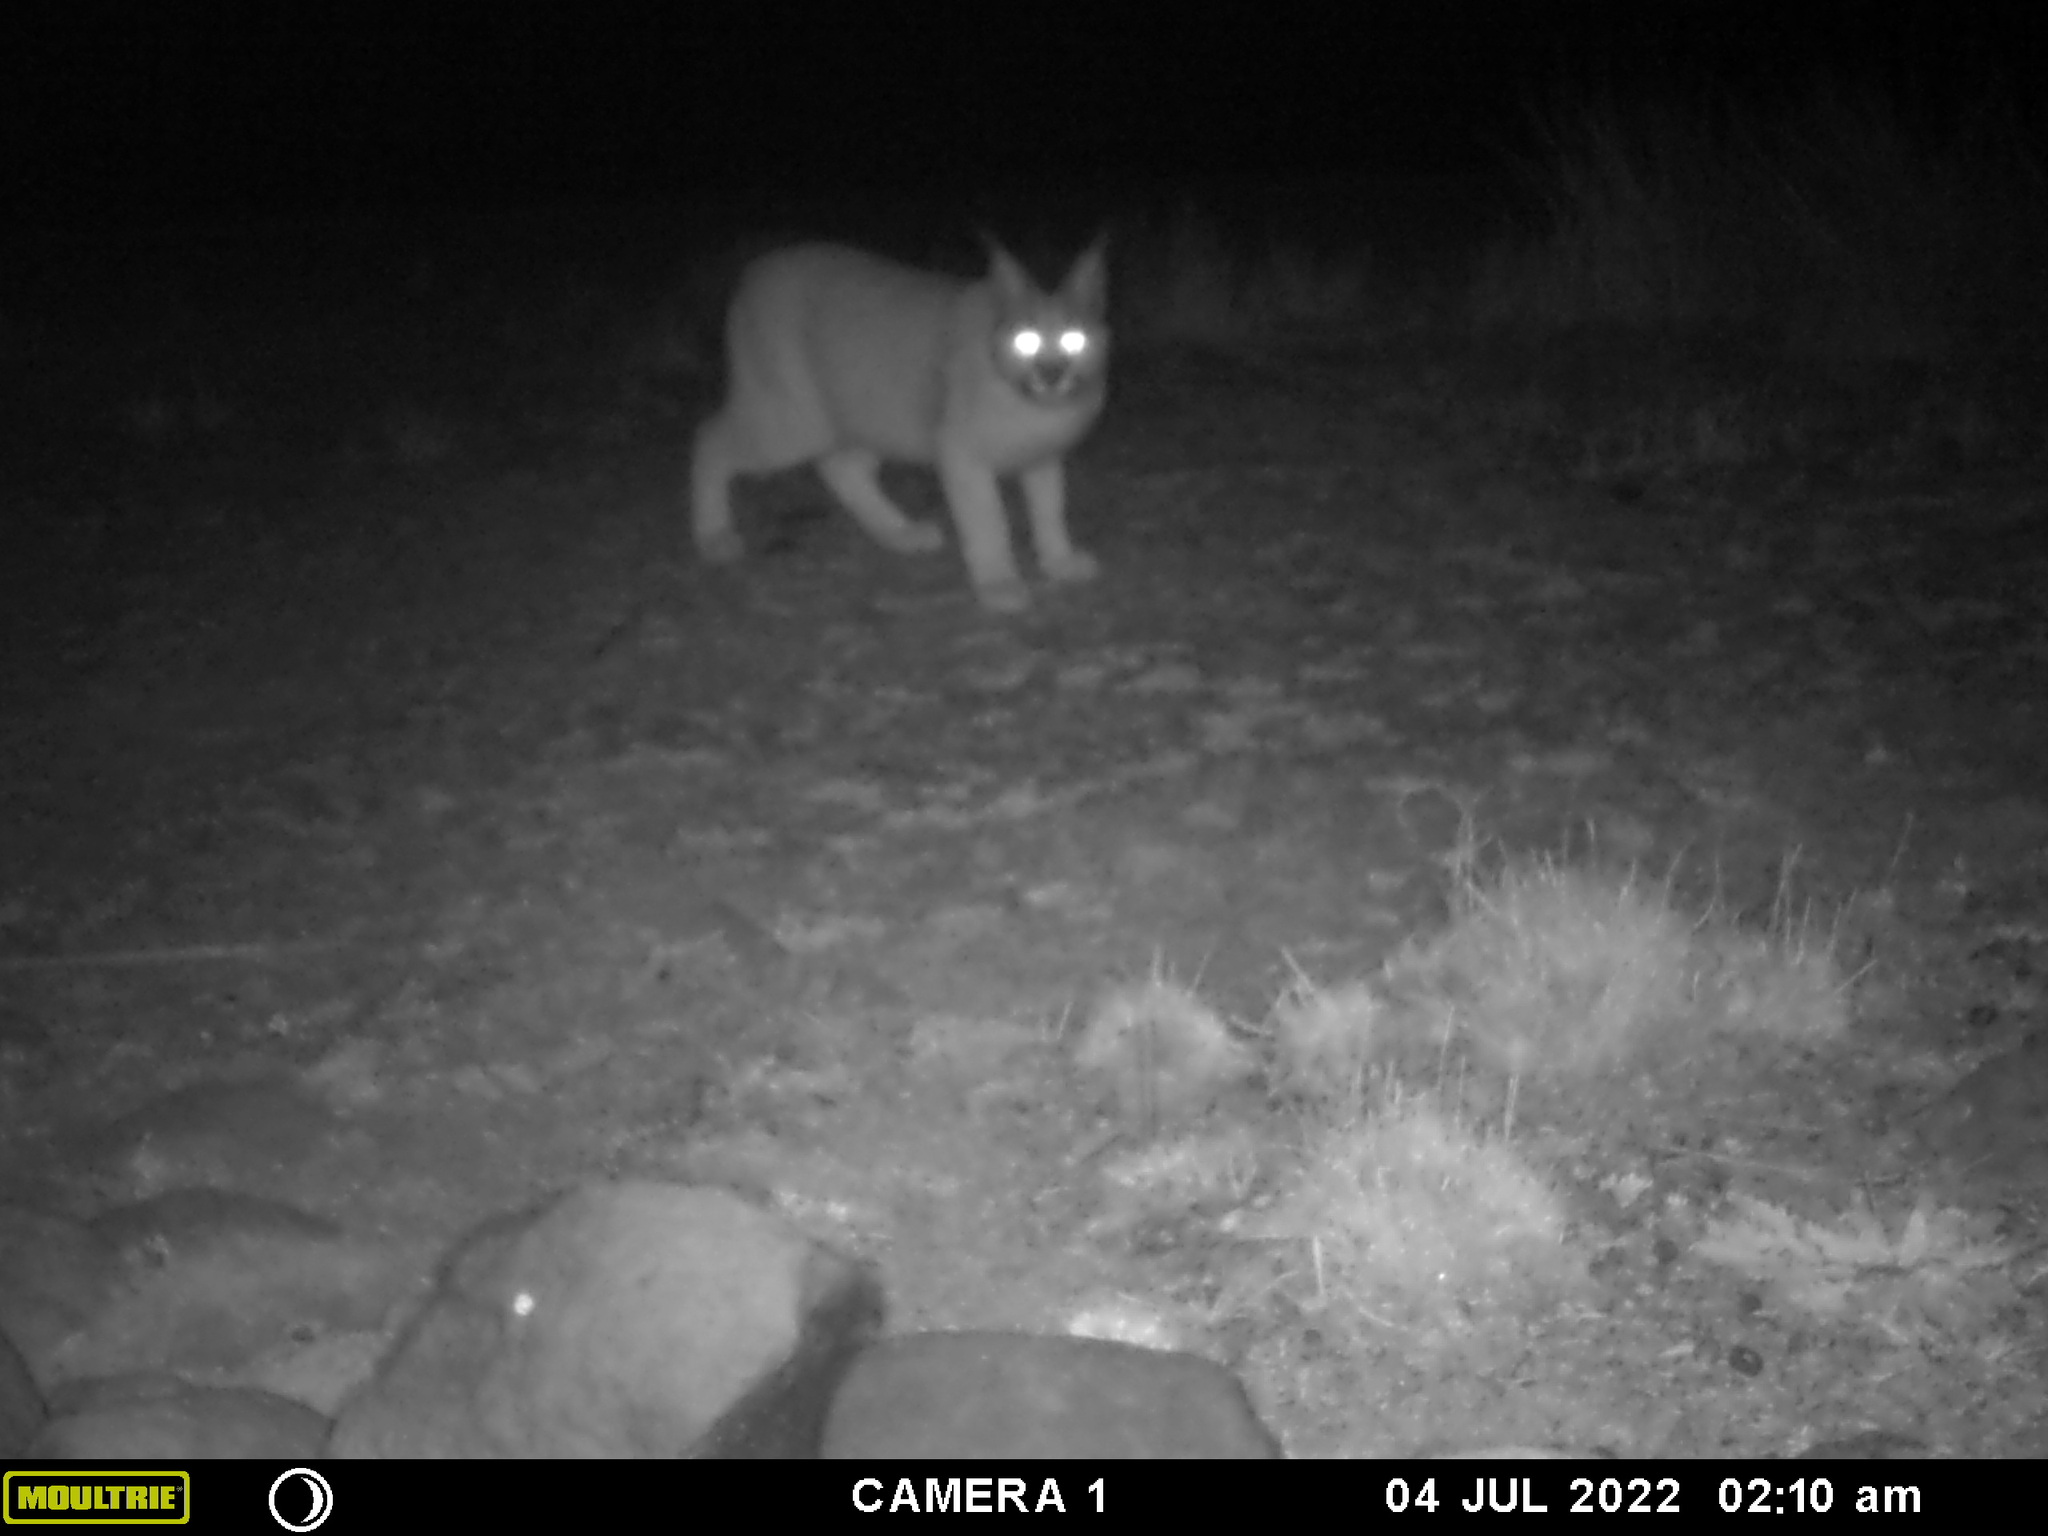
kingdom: Animalia
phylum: Chordata
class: Mammalia
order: Carnivora
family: Felidae
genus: Caracal
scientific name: Caracal caracal
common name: Caracal
